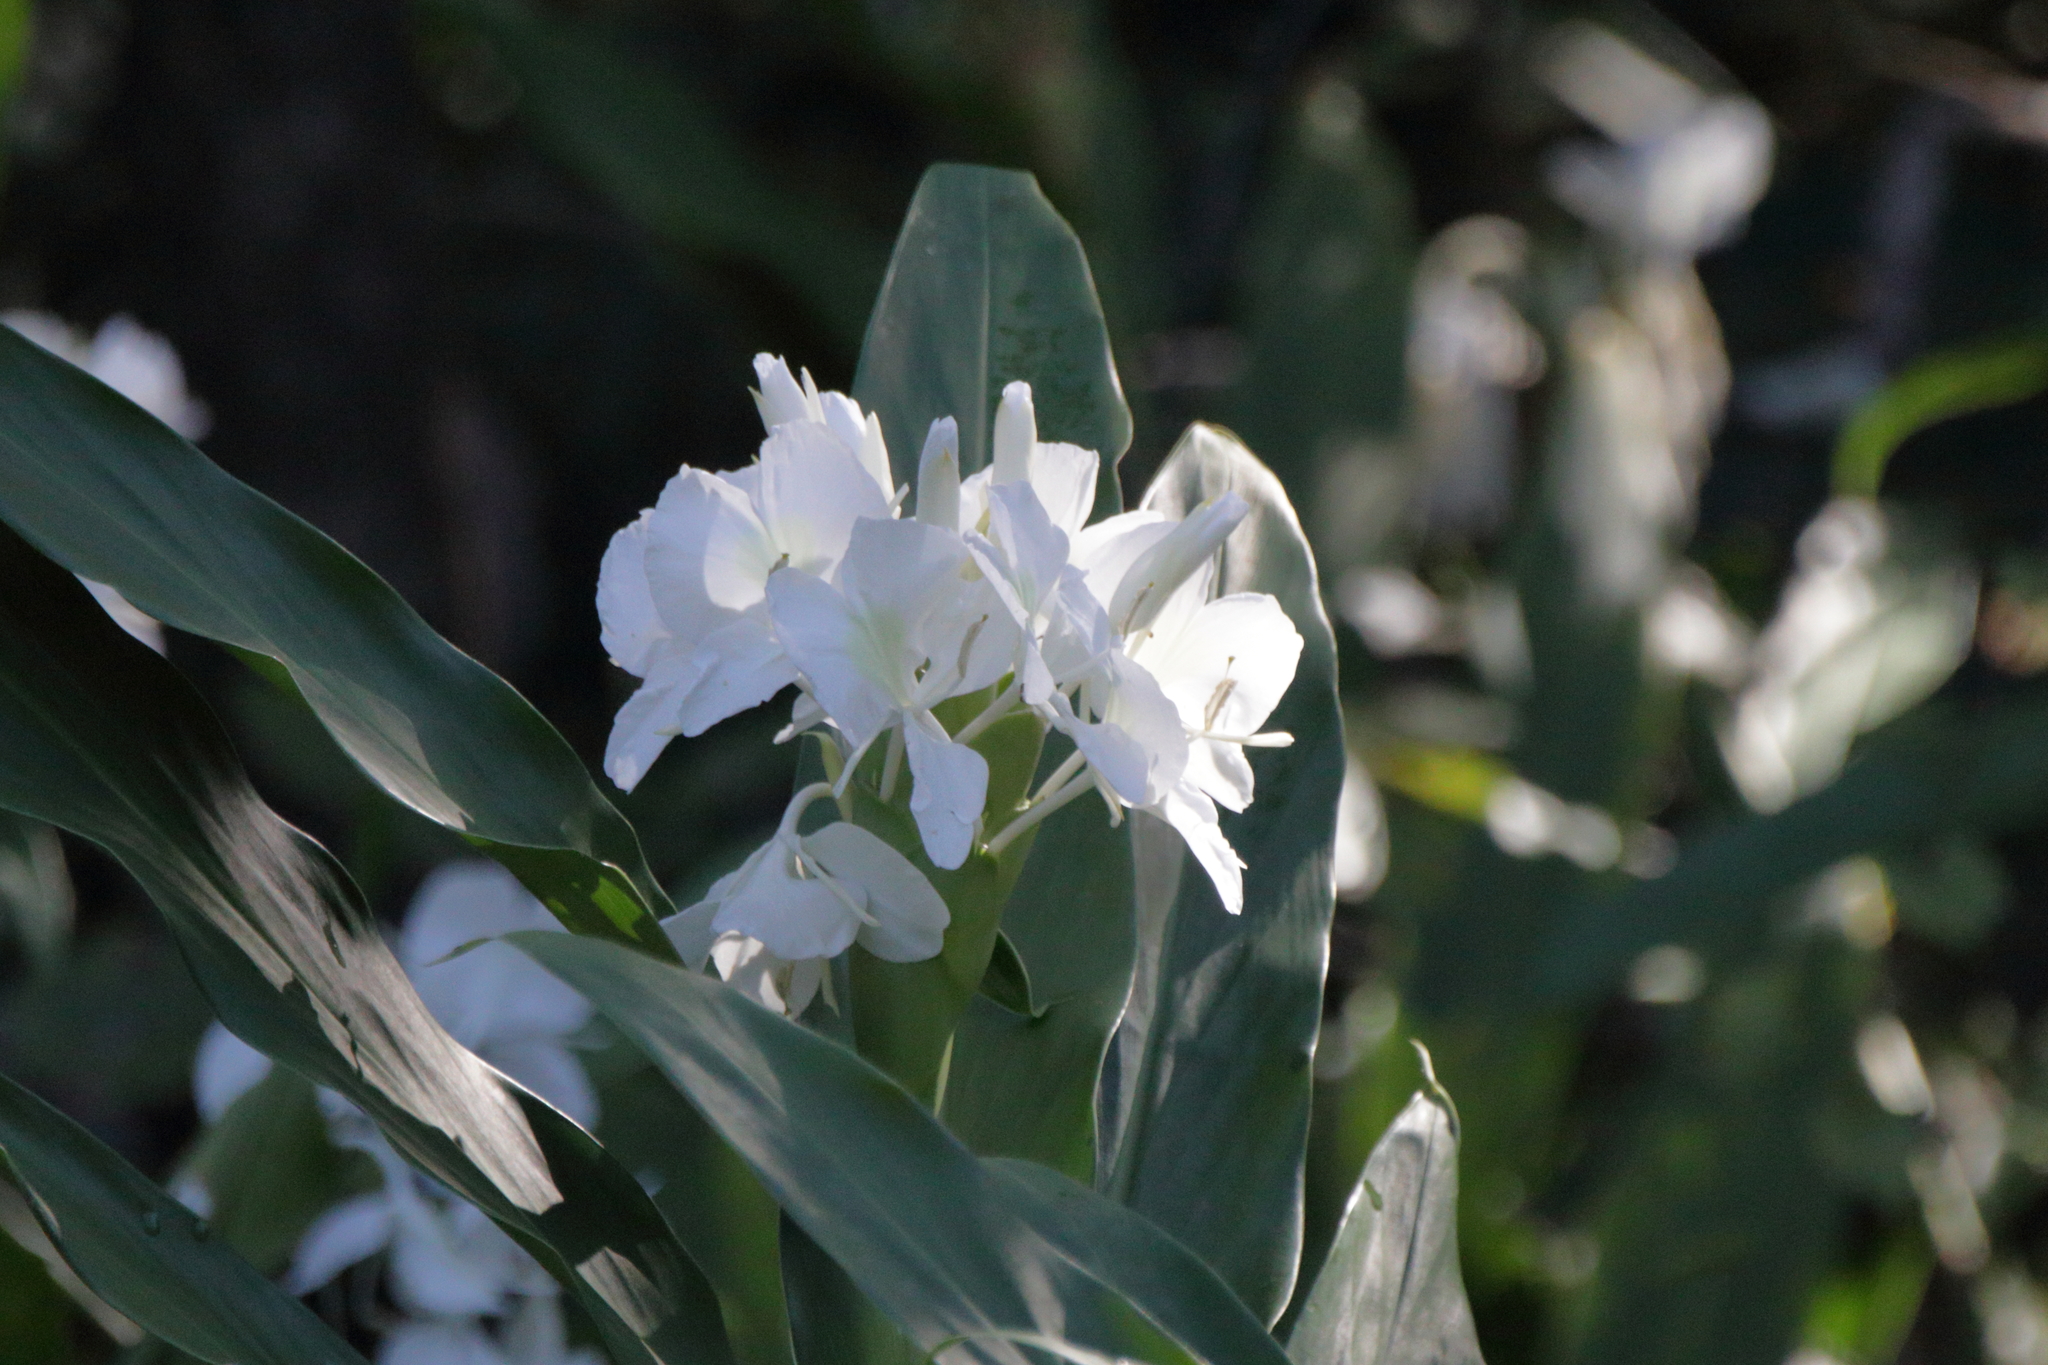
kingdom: Plantae
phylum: Tracheophyta
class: Liliopsida
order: Zingiberales
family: Zingiberaceae
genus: Hedychium
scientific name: Hedychium coronarium
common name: White garland-lily
